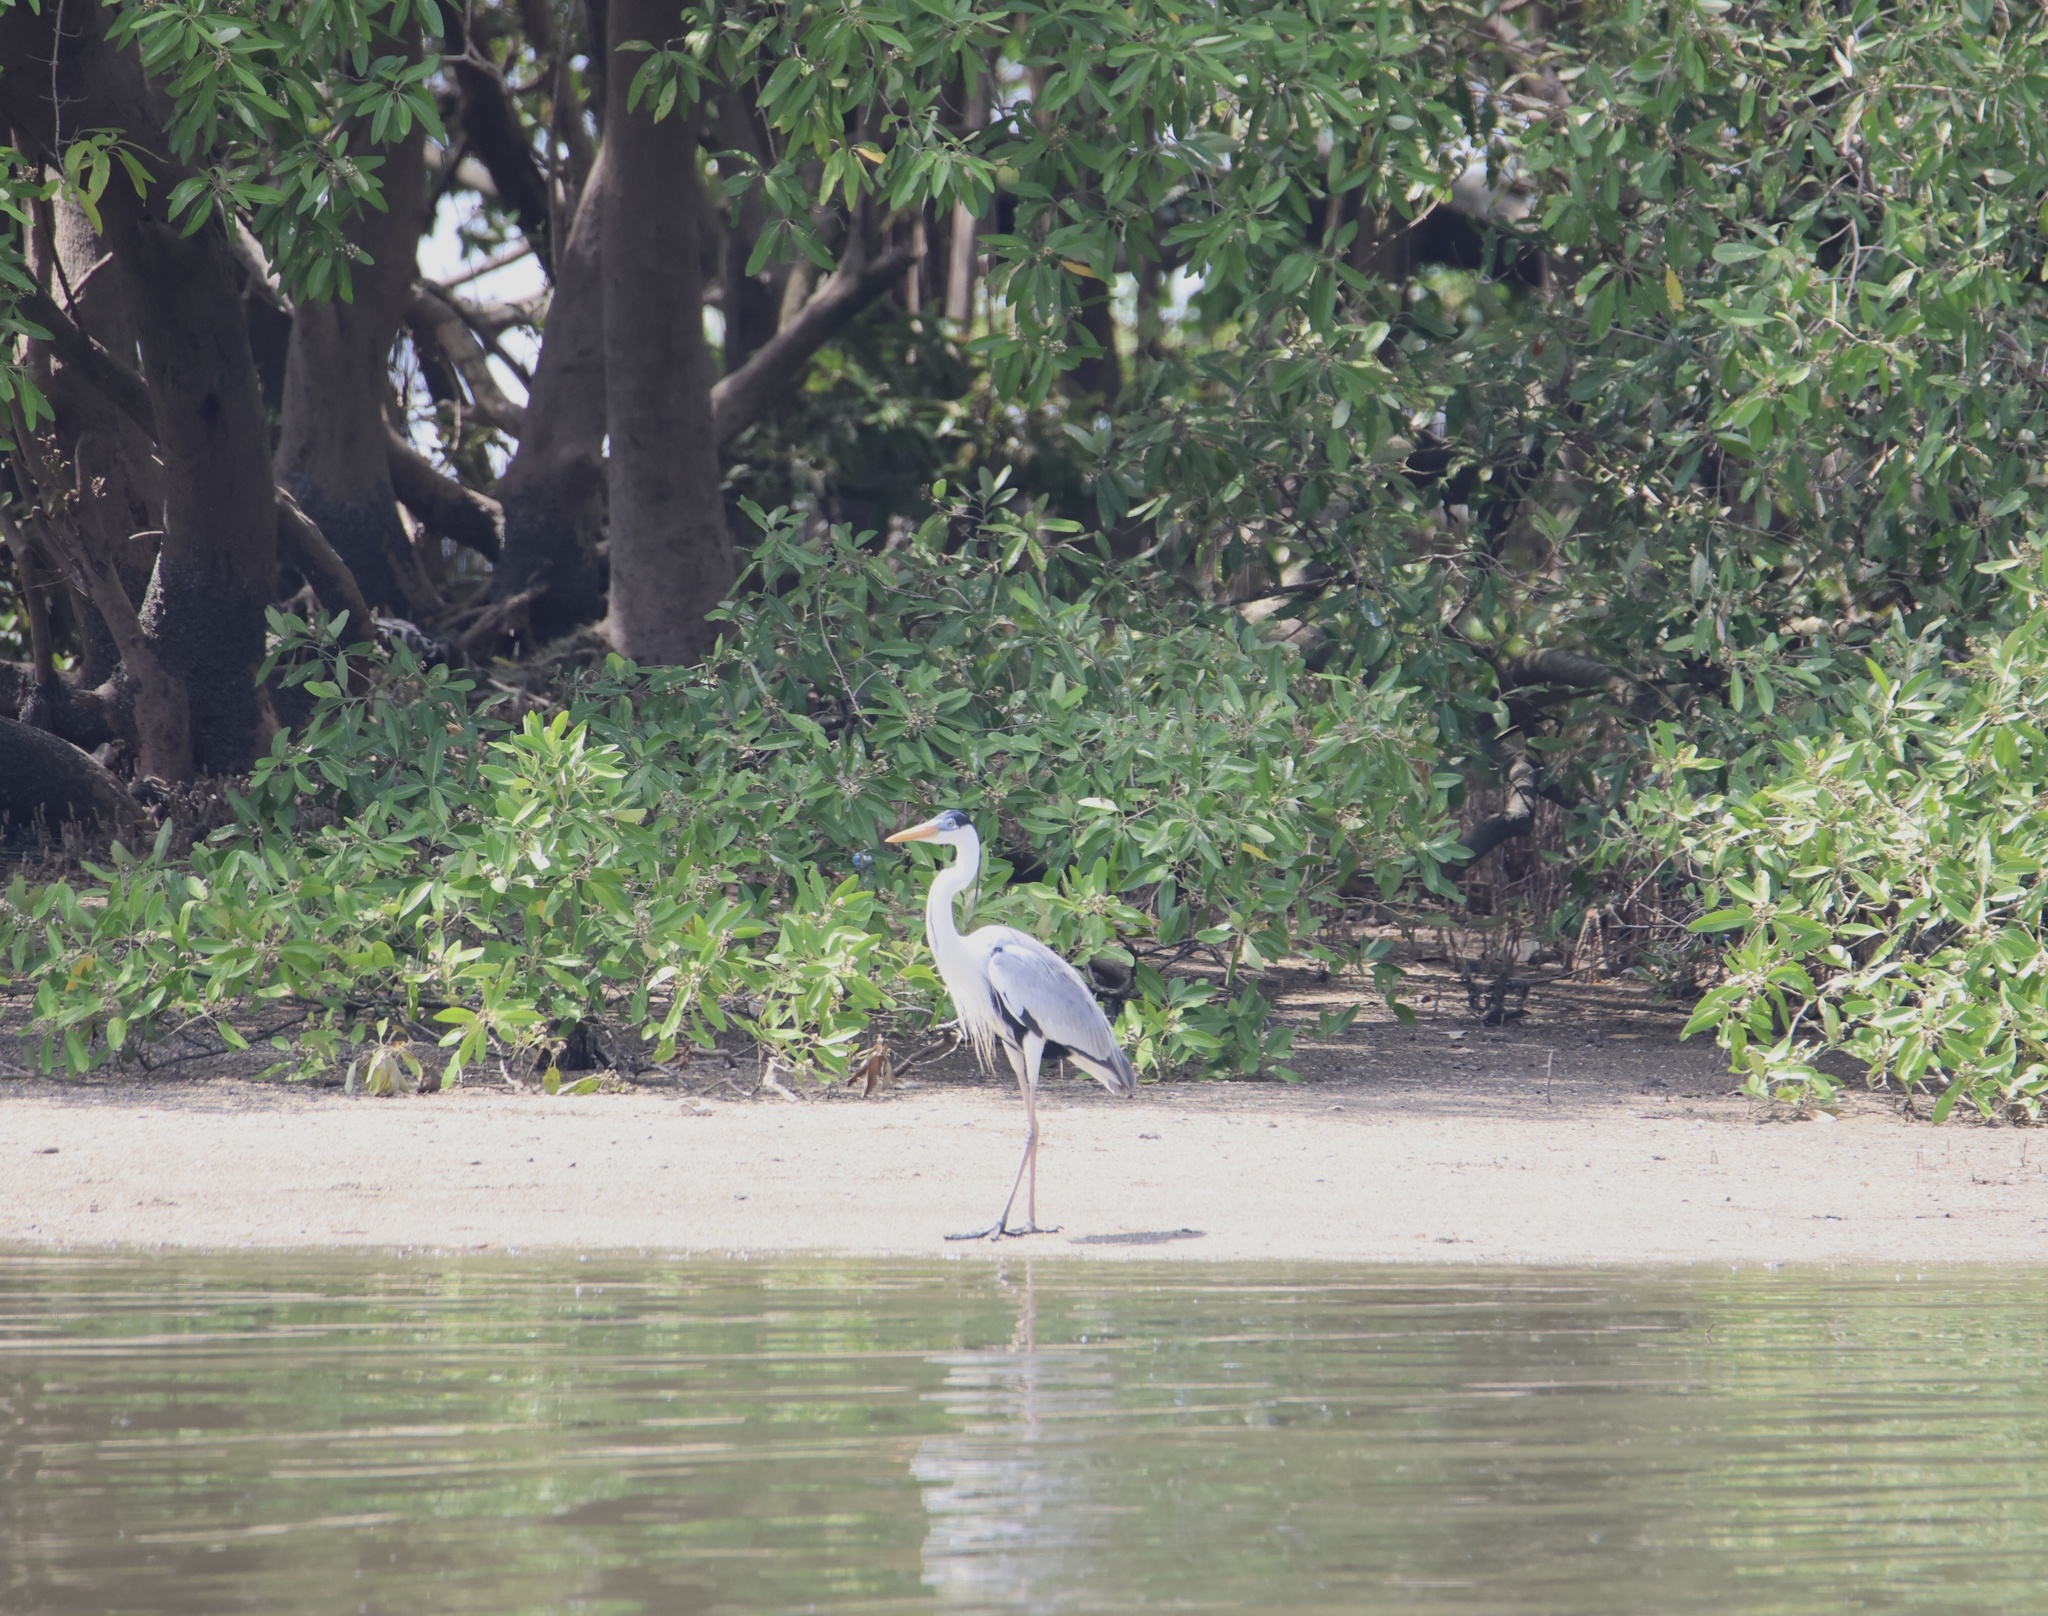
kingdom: Animalia
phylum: Chordata
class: Aves
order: Pelecaniformes
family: Ardeidae
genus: Ardea
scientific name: Ardea cocoi
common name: Cocoi heron
